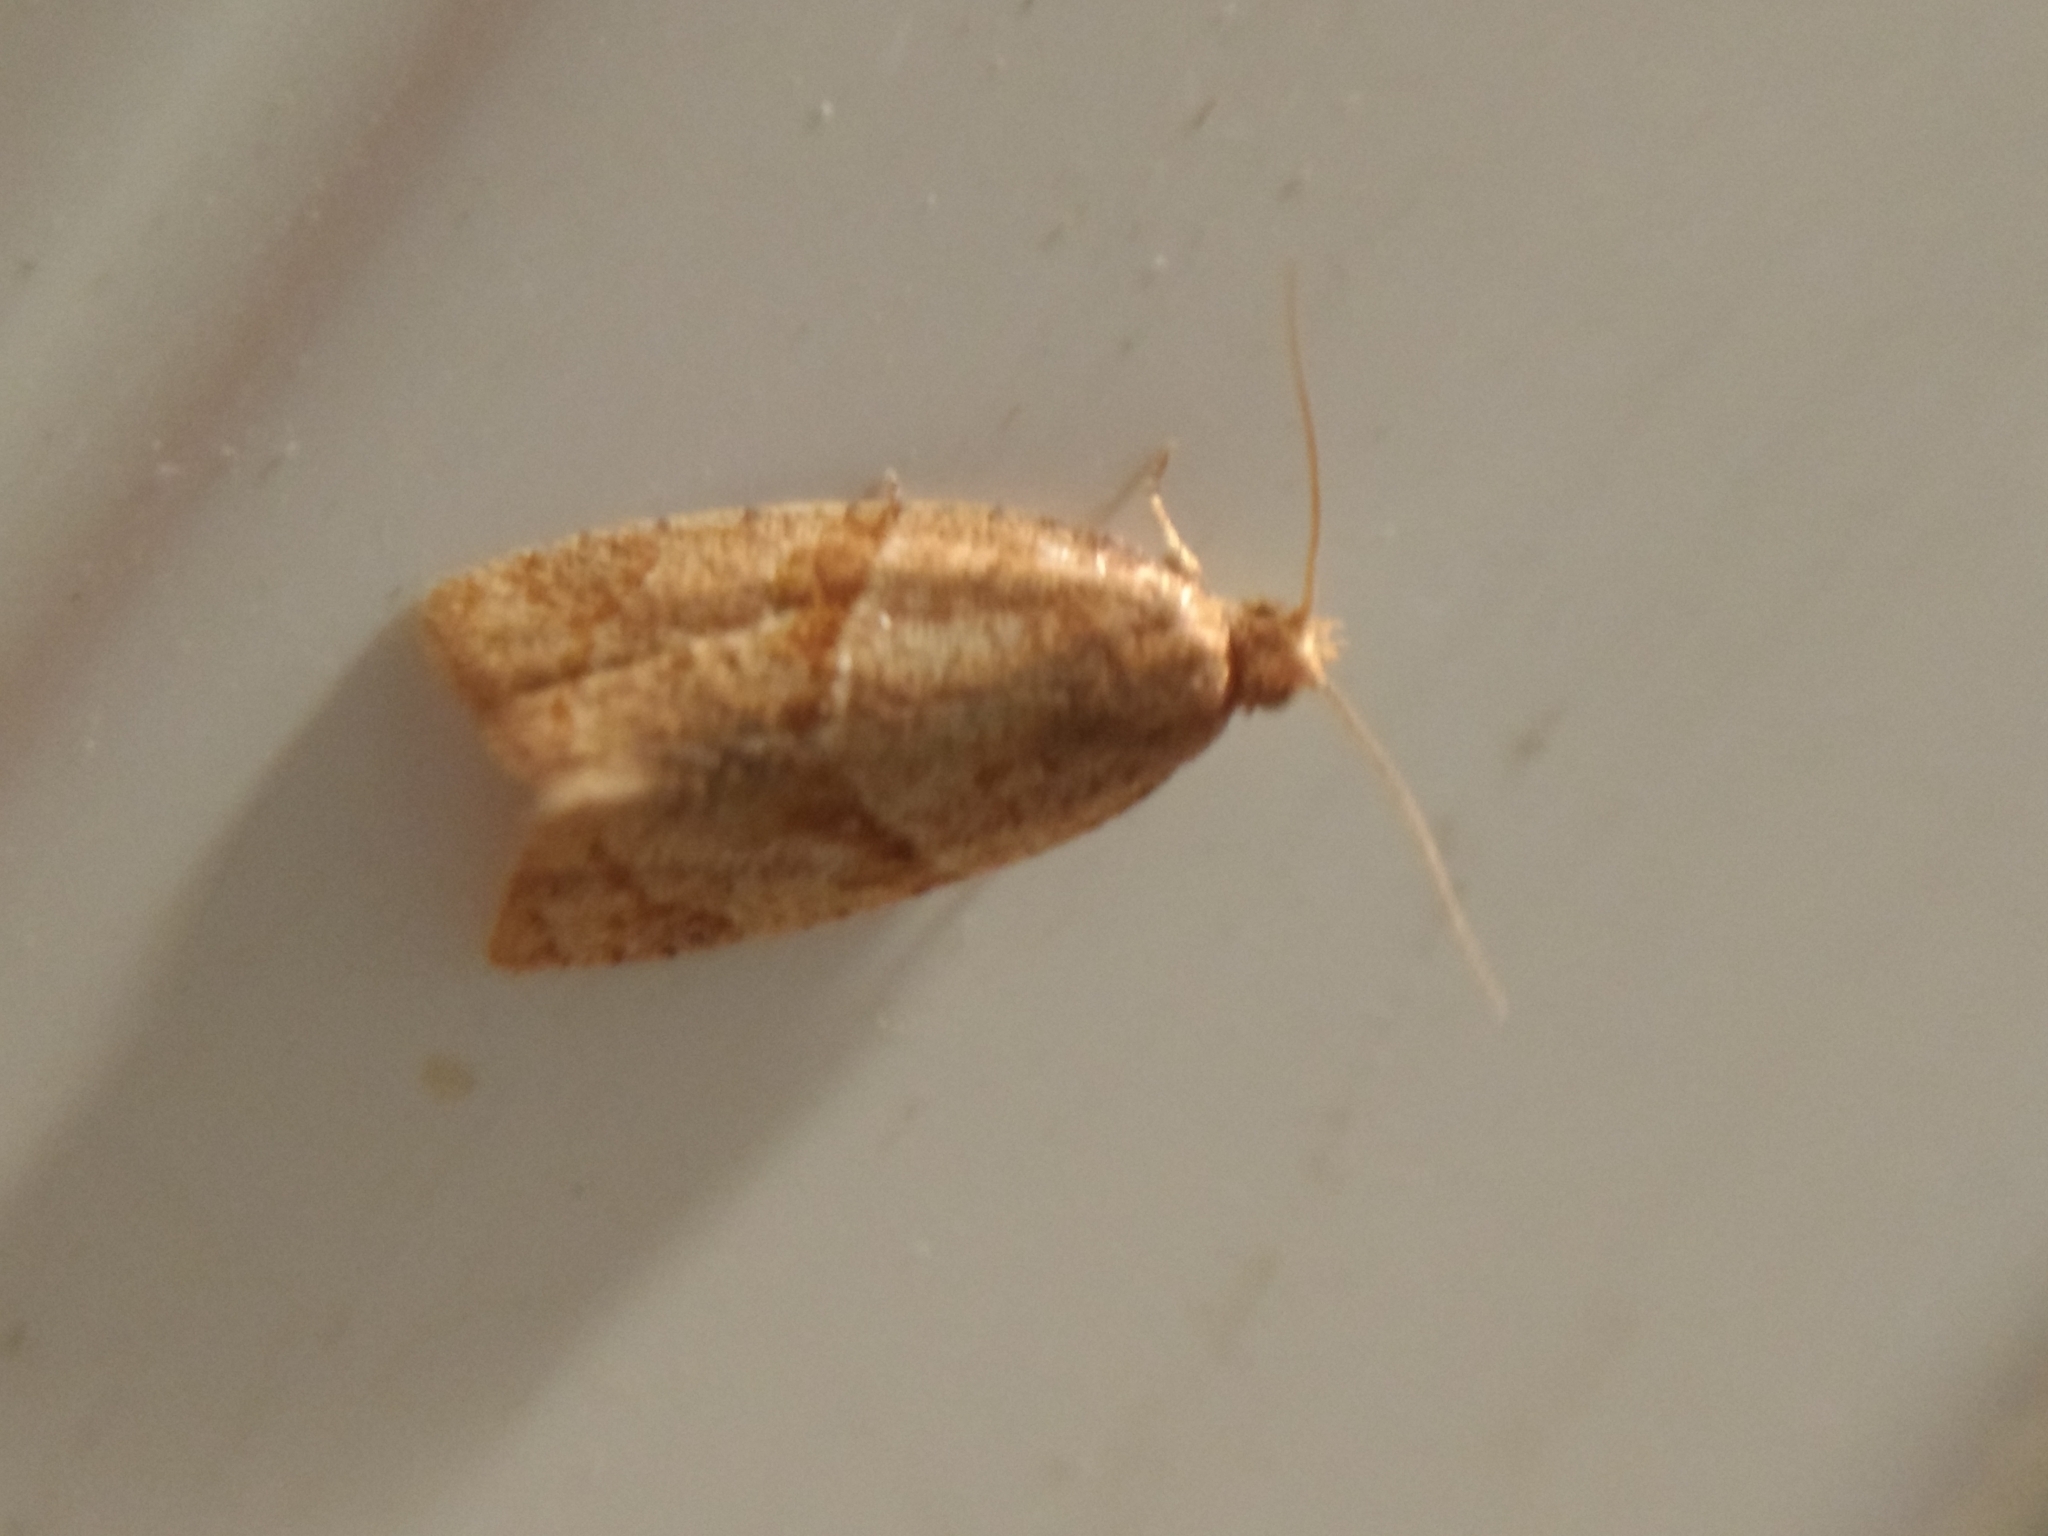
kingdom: Animalia
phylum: Arthropoda
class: Insecta
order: Lepidoptera
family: Tortricidae
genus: Clepsis
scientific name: Clepsis peritana
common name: Garden tortrix
